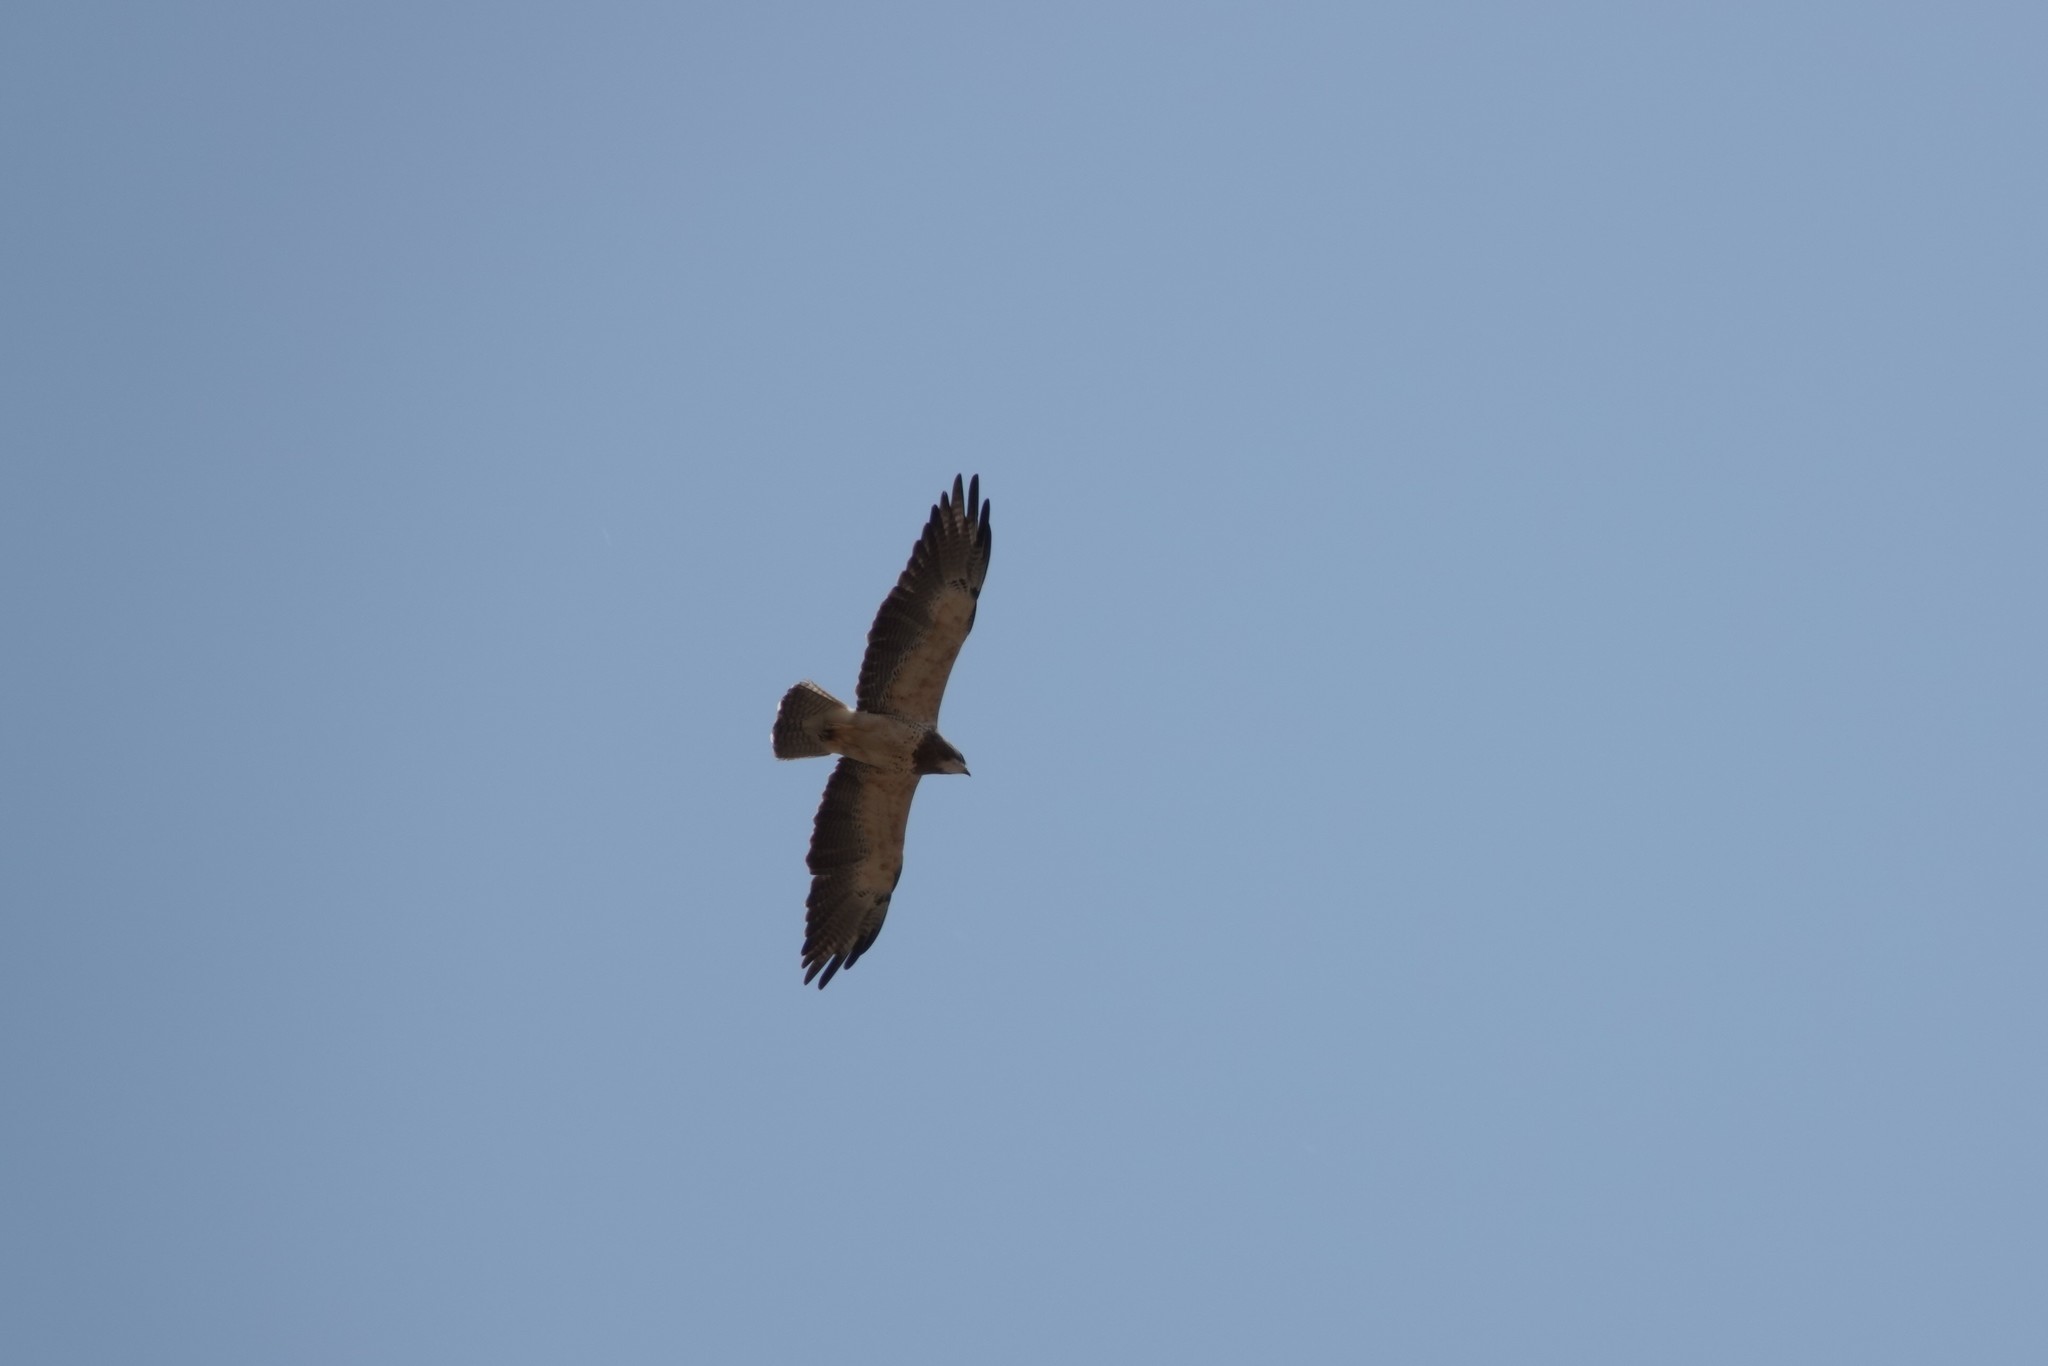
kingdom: Animalia
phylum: Chordata
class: Aves
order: Accipitriformes
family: Accipitridae
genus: Buteo
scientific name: Buteo swainsoni
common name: Swainson's hawk
